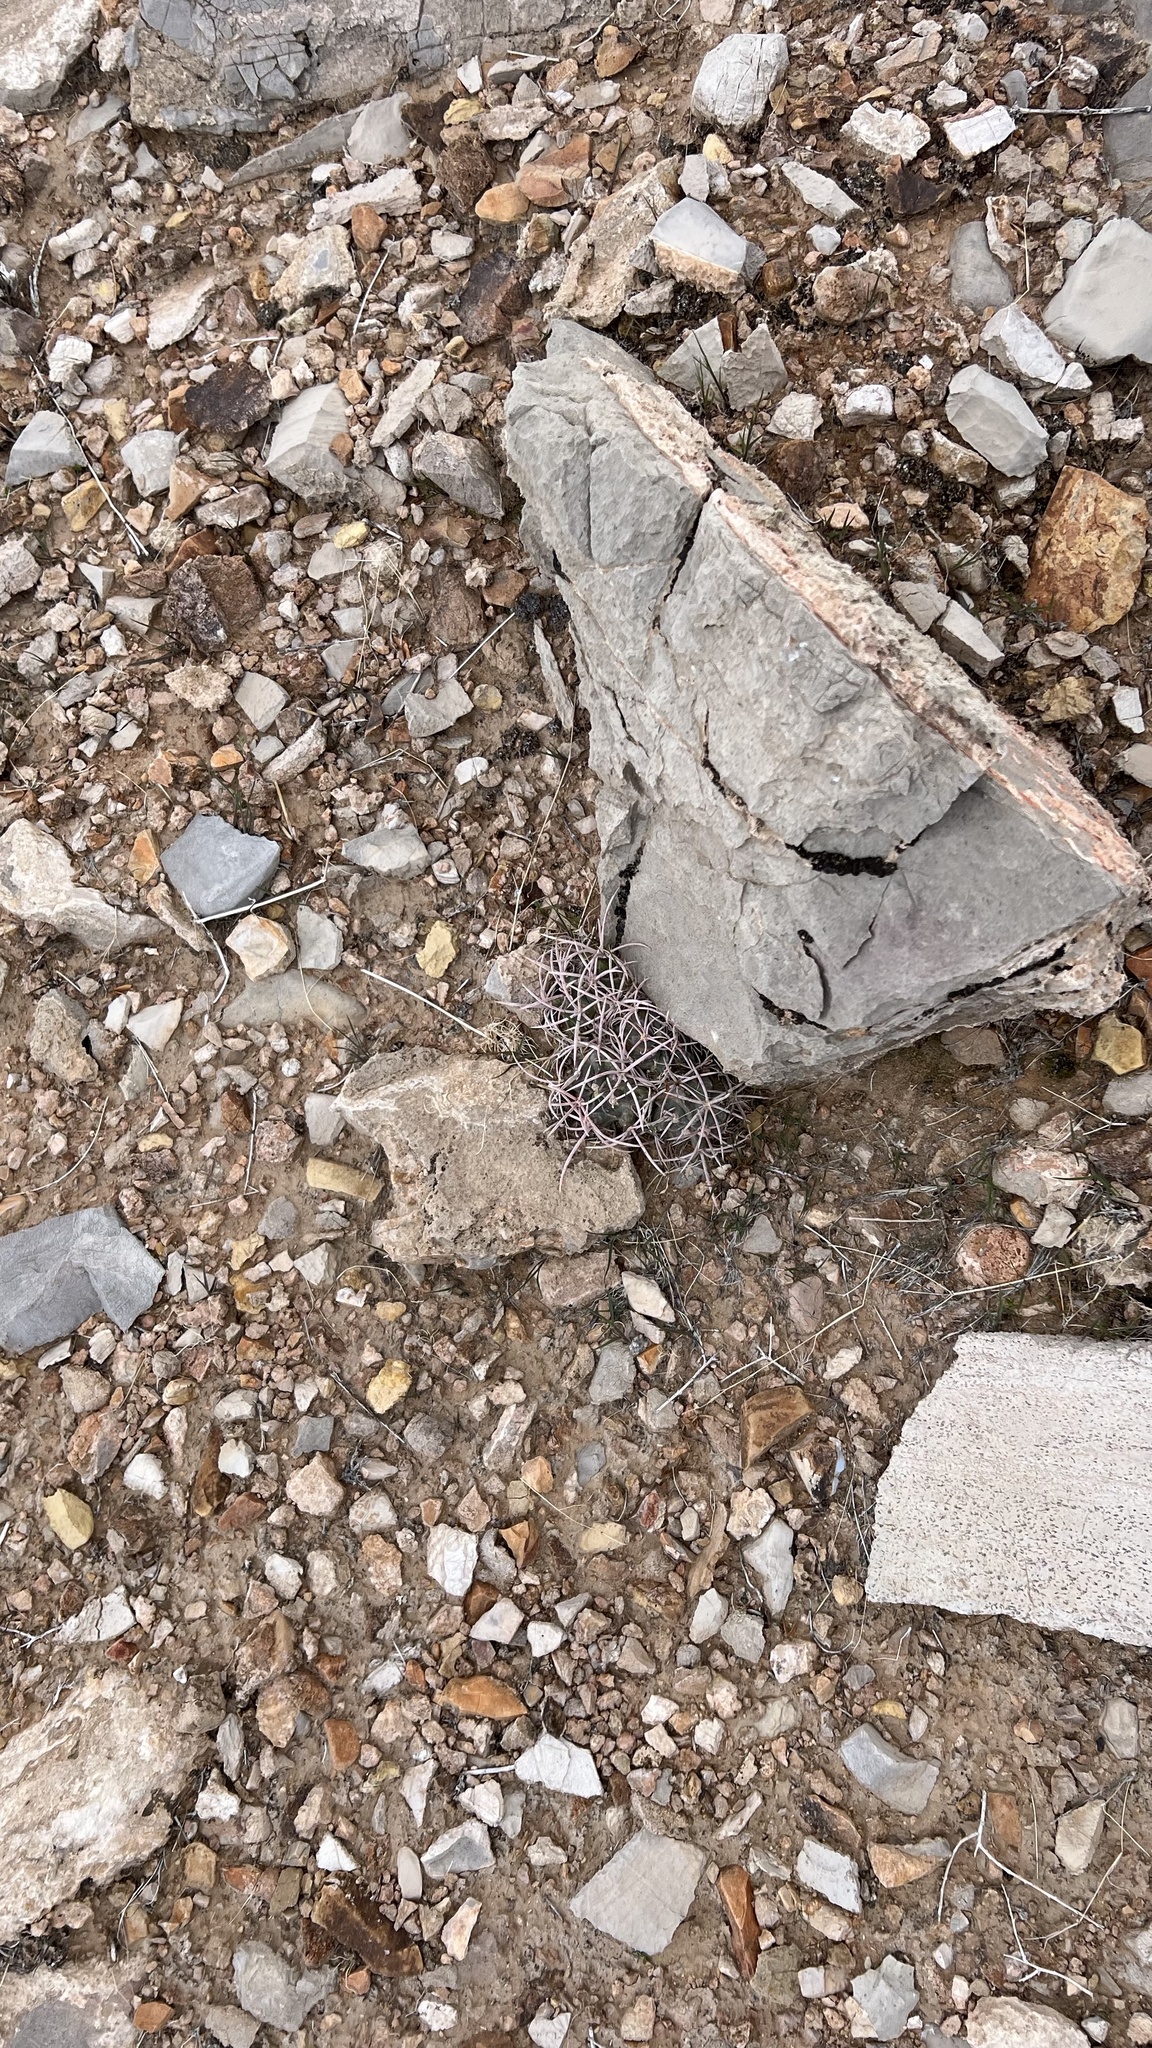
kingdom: Plantae
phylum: Tracheophyta
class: Magnoliopsida
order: Caryophyllales
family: Cactaceae
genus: Echinocactus
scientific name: Echinocactus polycephalus
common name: Cottontop cactus
